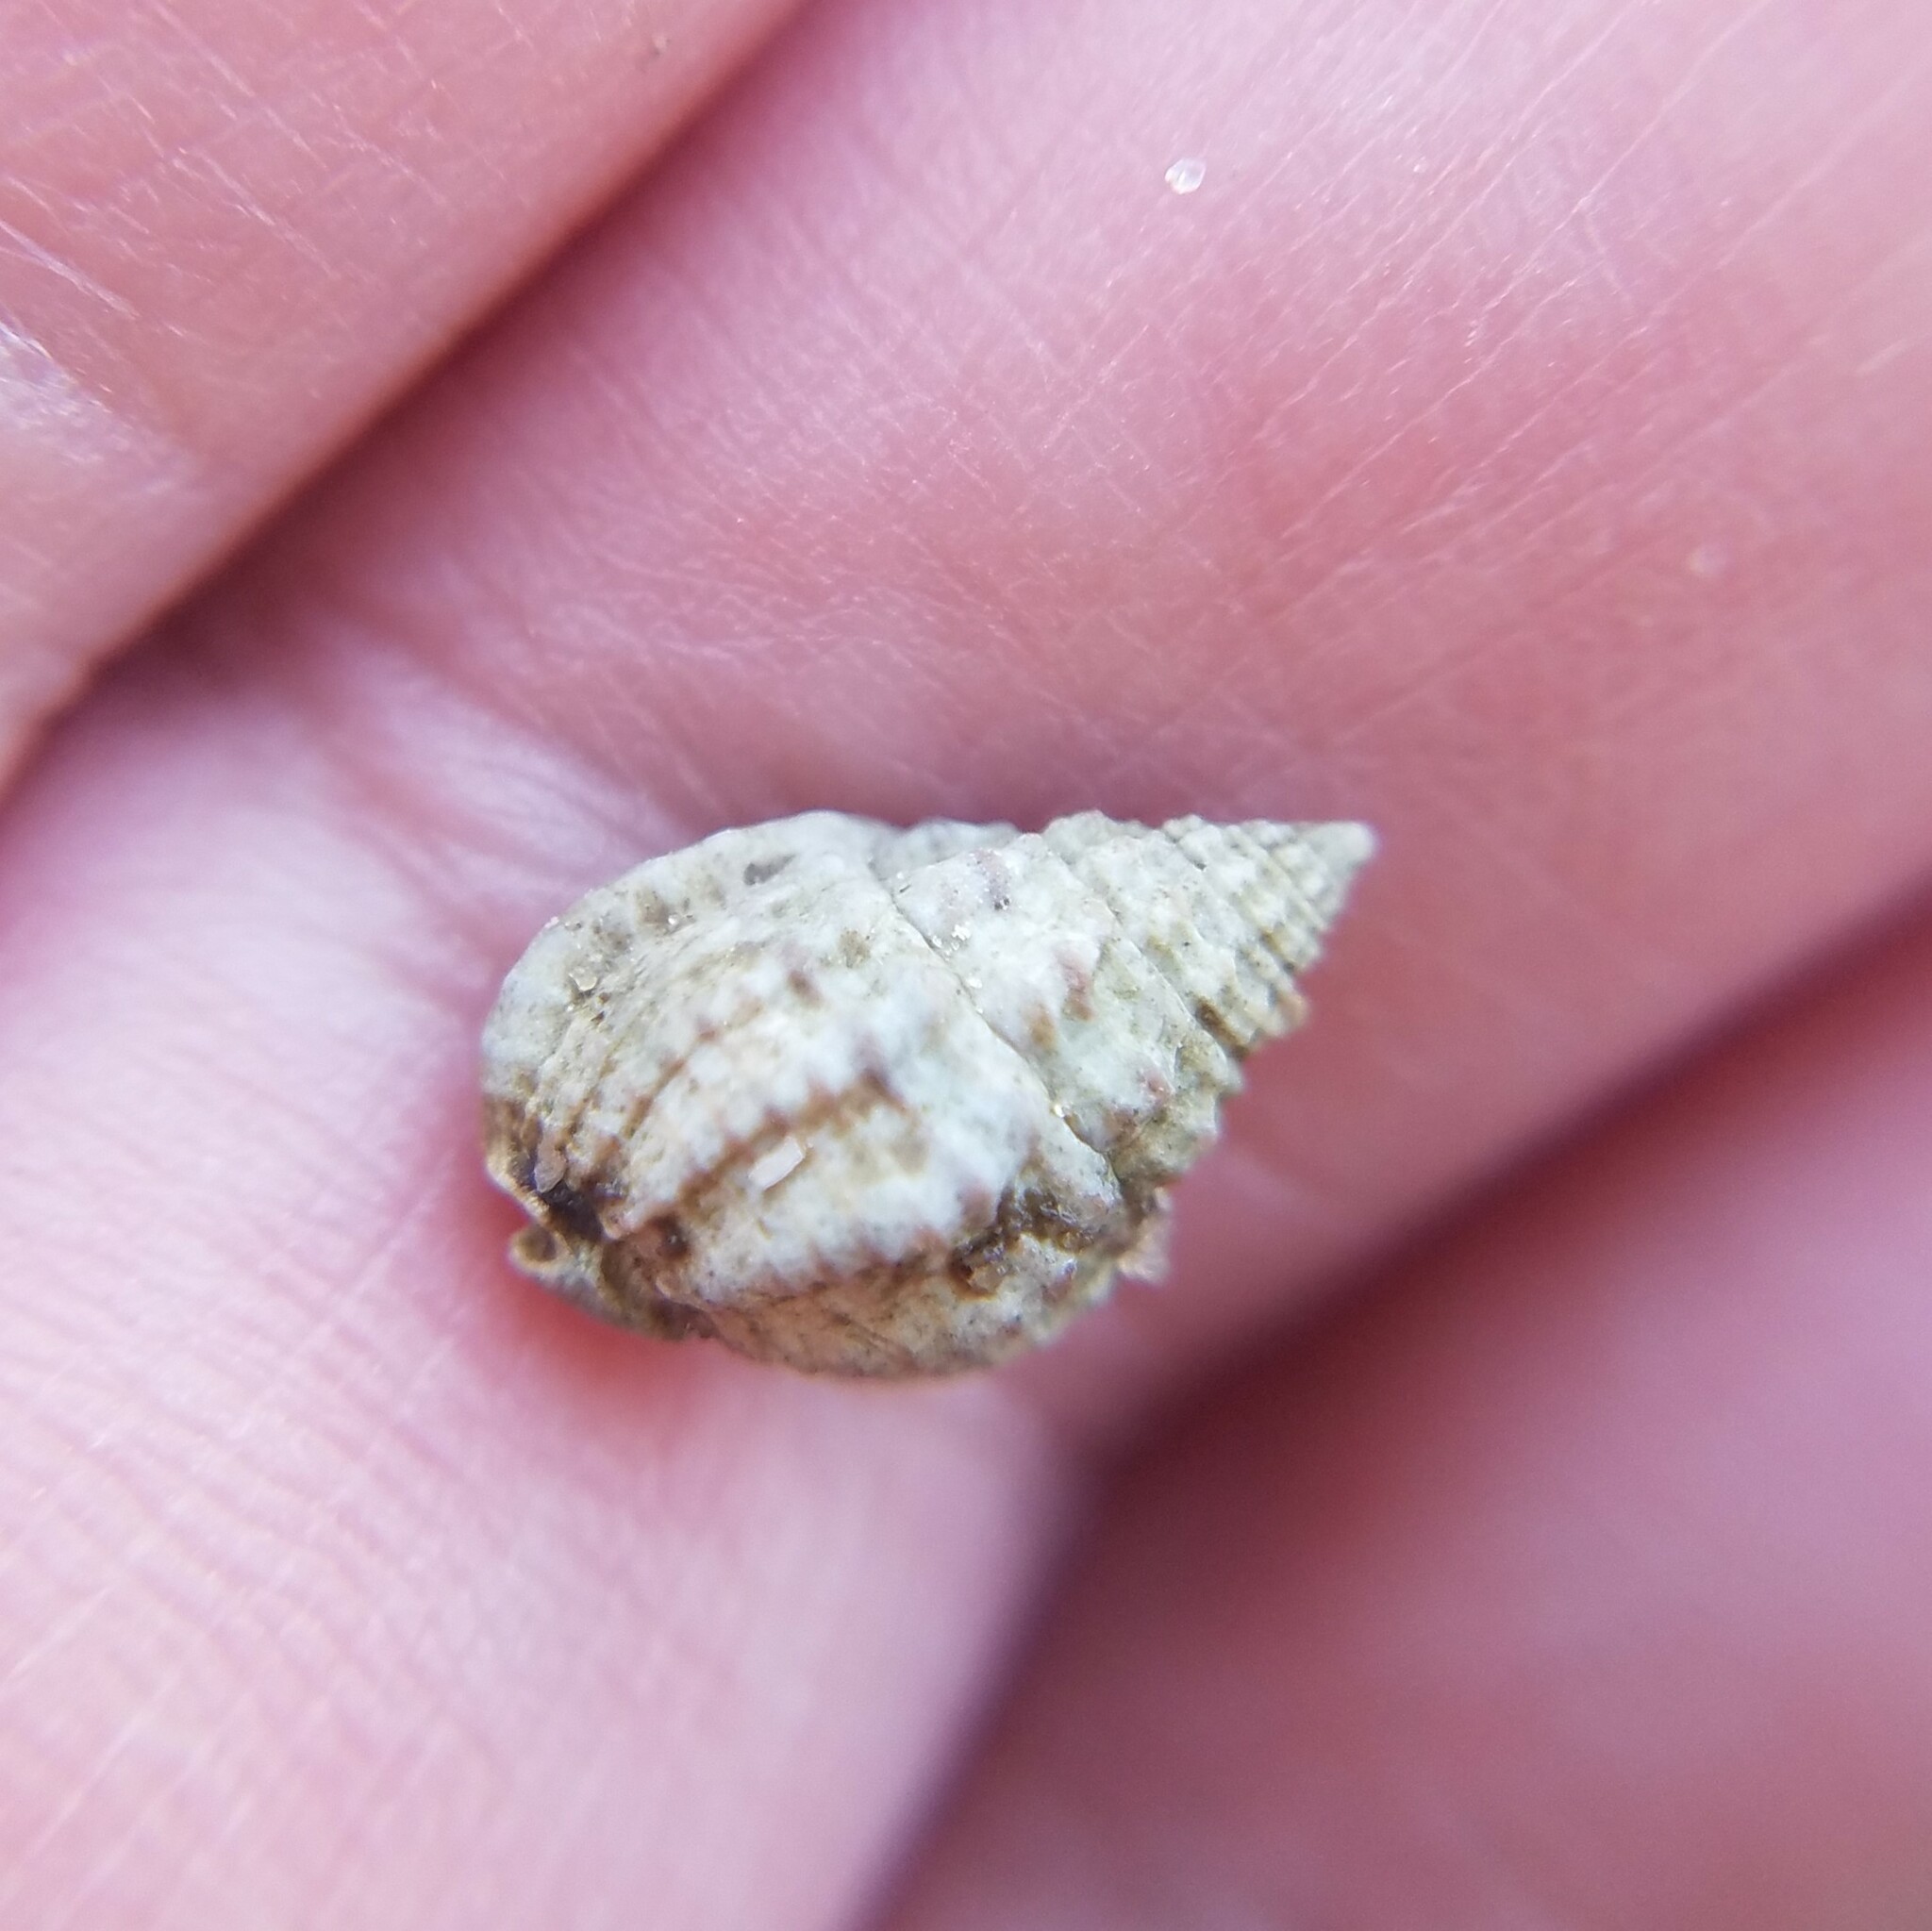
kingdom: Animalia
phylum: Mollusca
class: Gastropoda
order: Neogastropoda
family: Nassariidae
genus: Phrontis
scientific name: Phrontis vibex
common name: Bruised nassa
